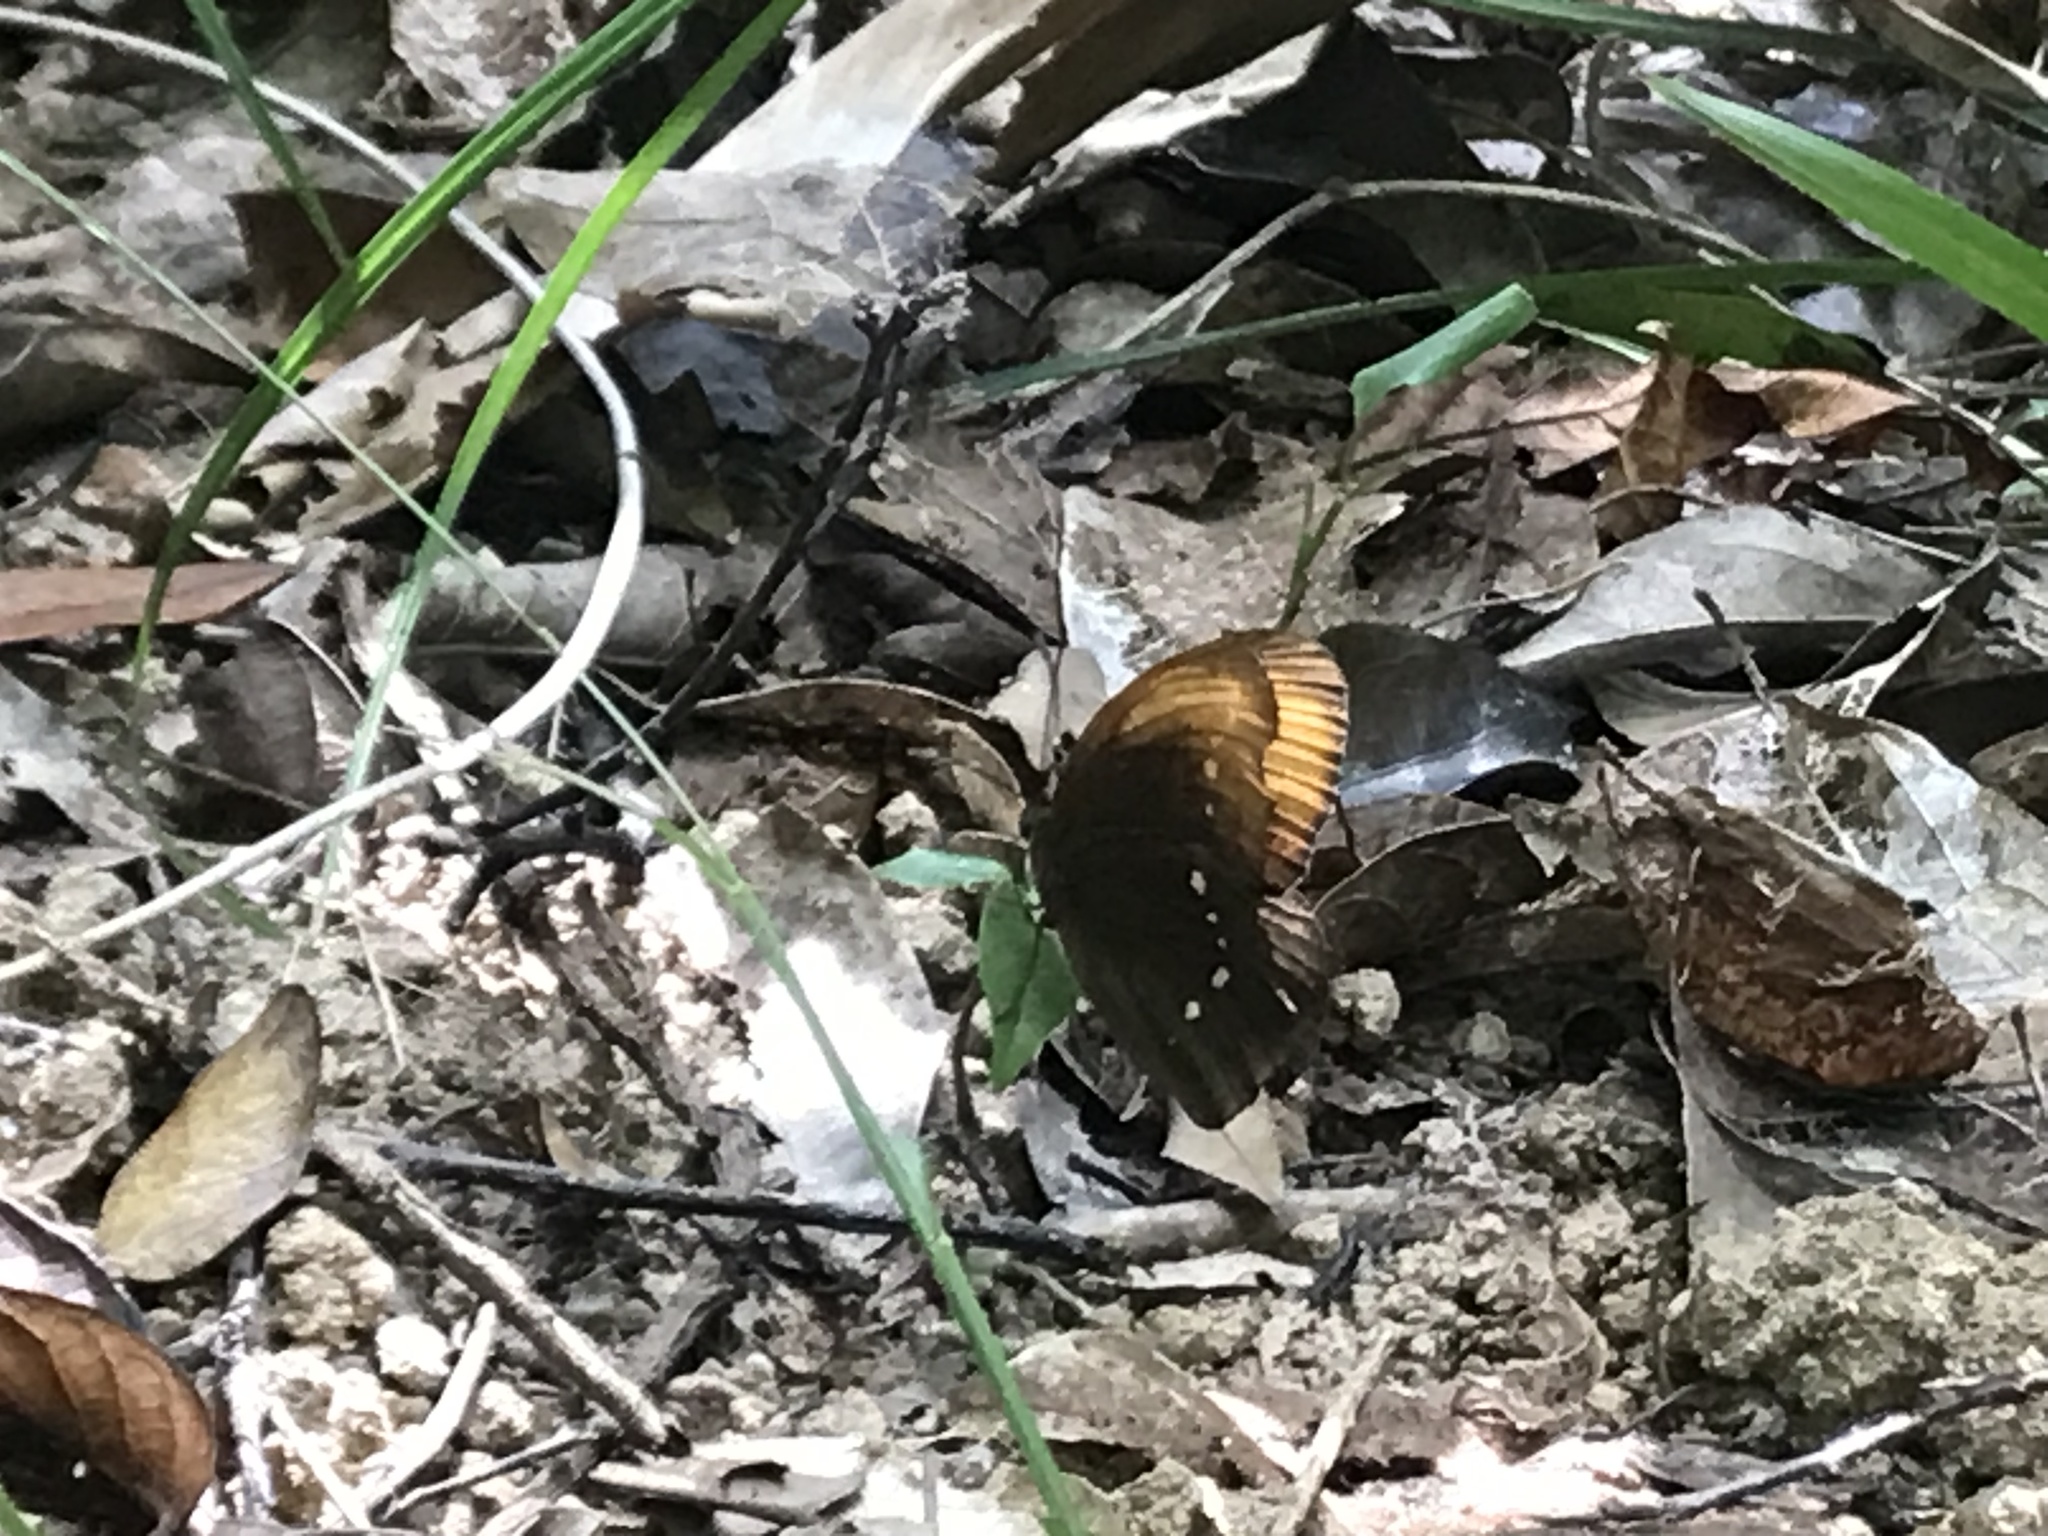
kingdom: Animalia
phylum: Arthropoda
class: Insecta
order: Lepidoptera
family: Nymphalidae
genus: Faunis
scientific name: Faunis eumeus
